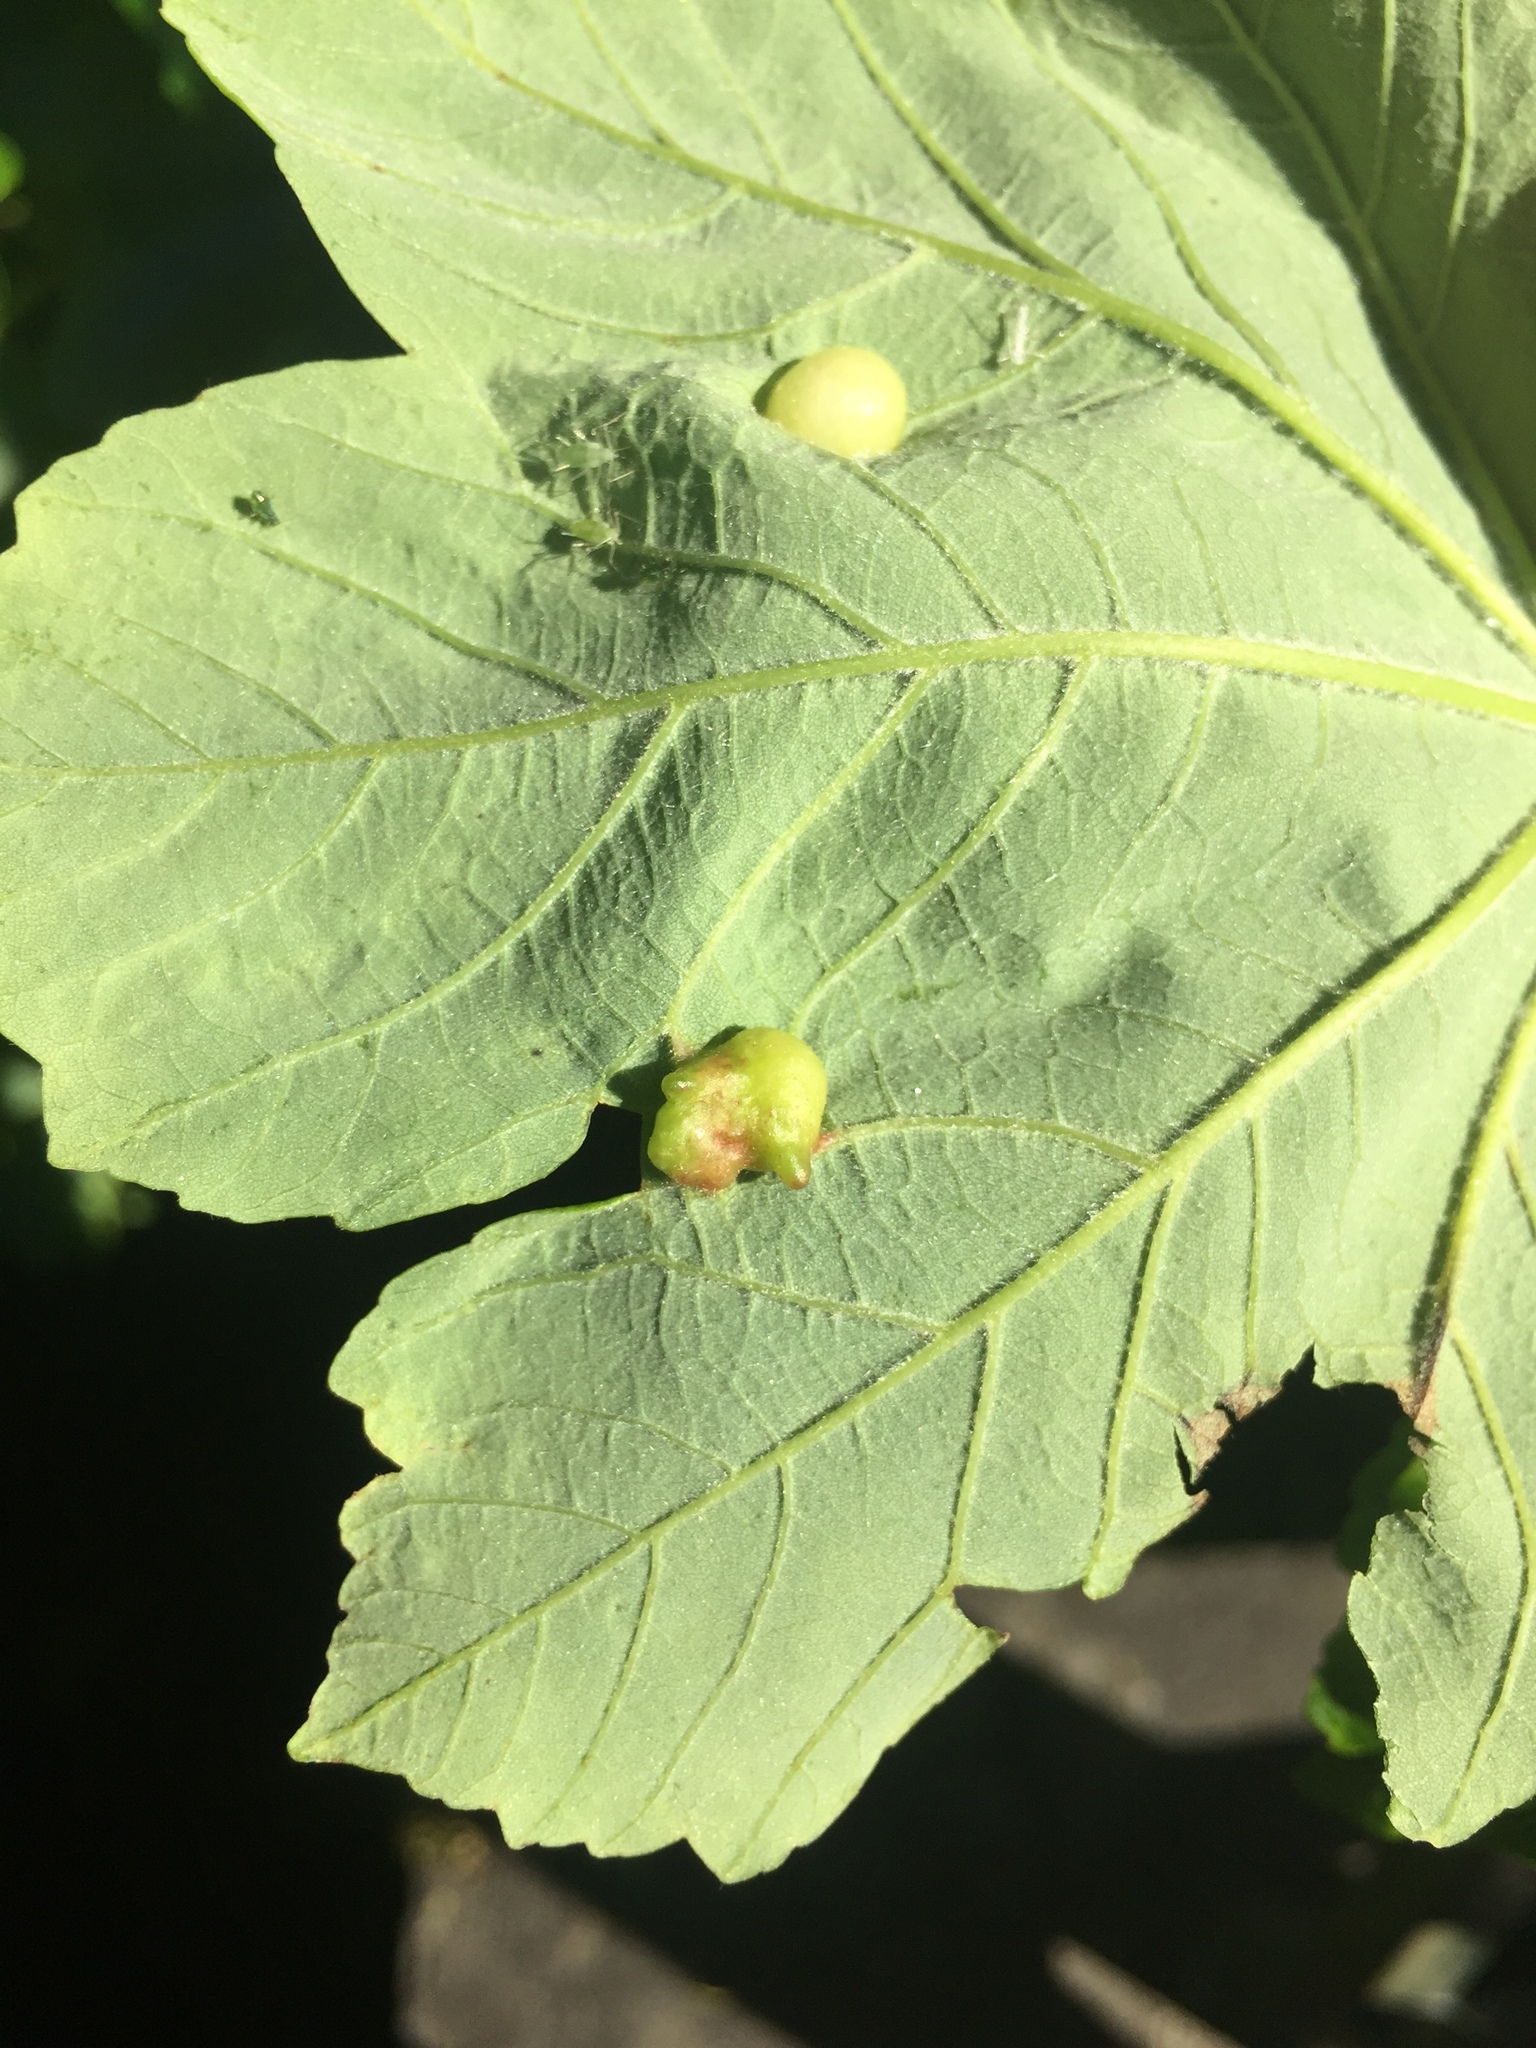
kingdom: Animalia
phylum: Arthropoda
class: Insecta
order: Hymenoptera
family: Eulophidae
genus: Dichatomus
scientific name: Dichatomus acerinus
